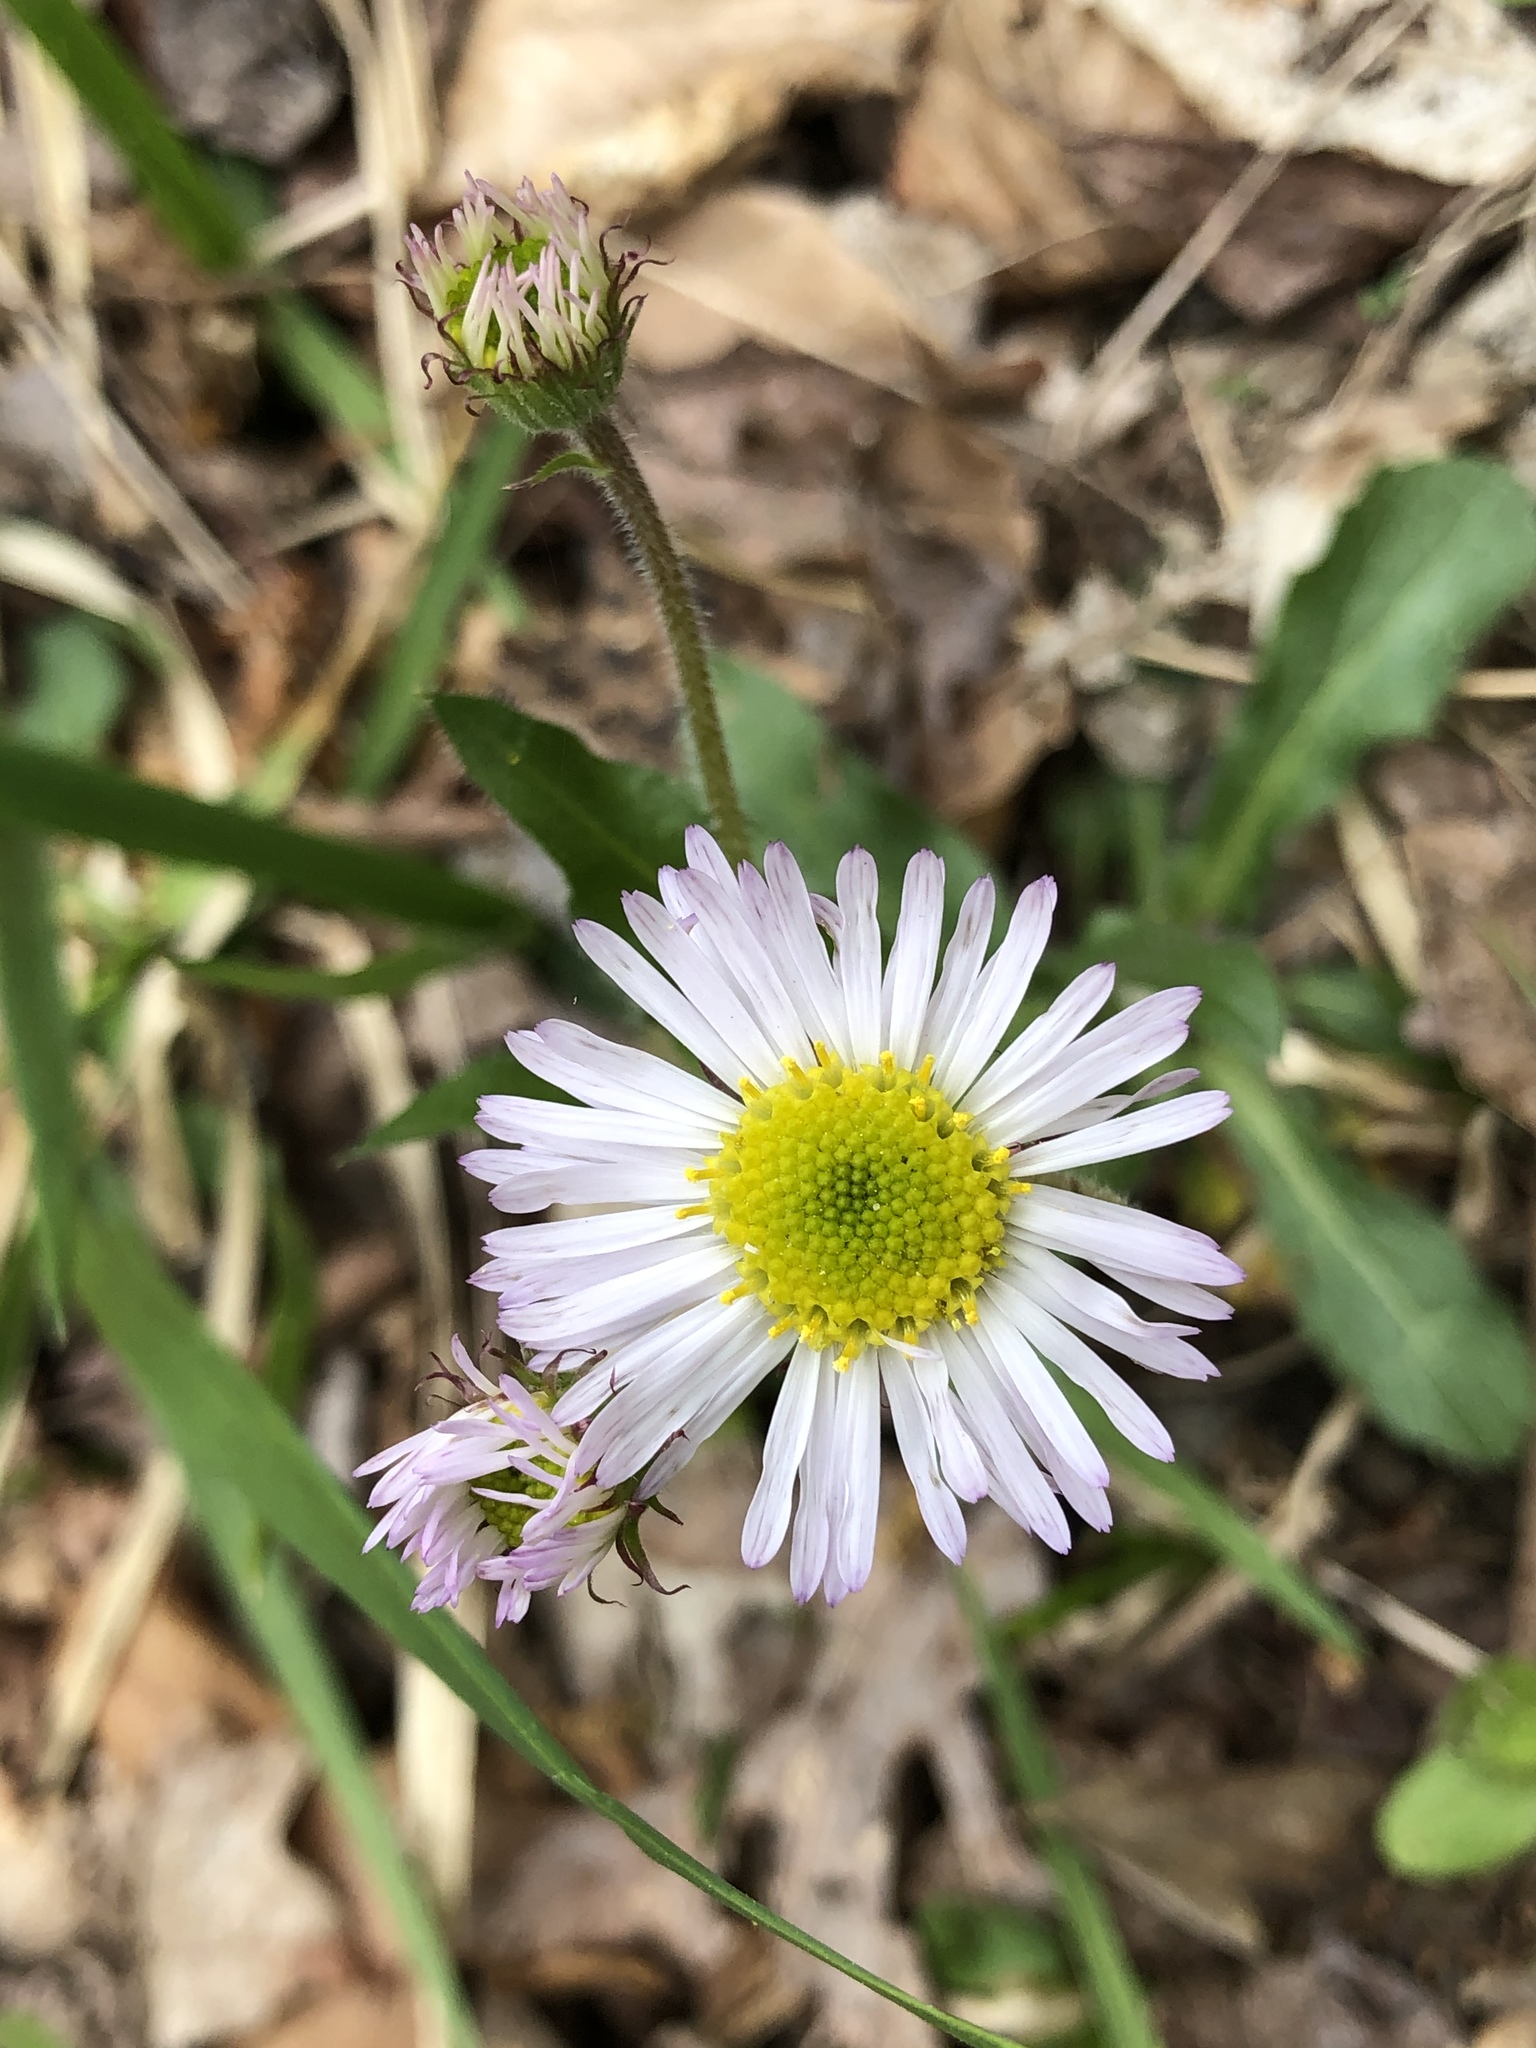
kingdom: Plantae
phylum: Tracheophyta
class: Magnoliopsida
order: Asterales
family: Asteraceae
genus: Erigeron
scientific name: Erigeron pulchellus
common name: Hairy fleabane
